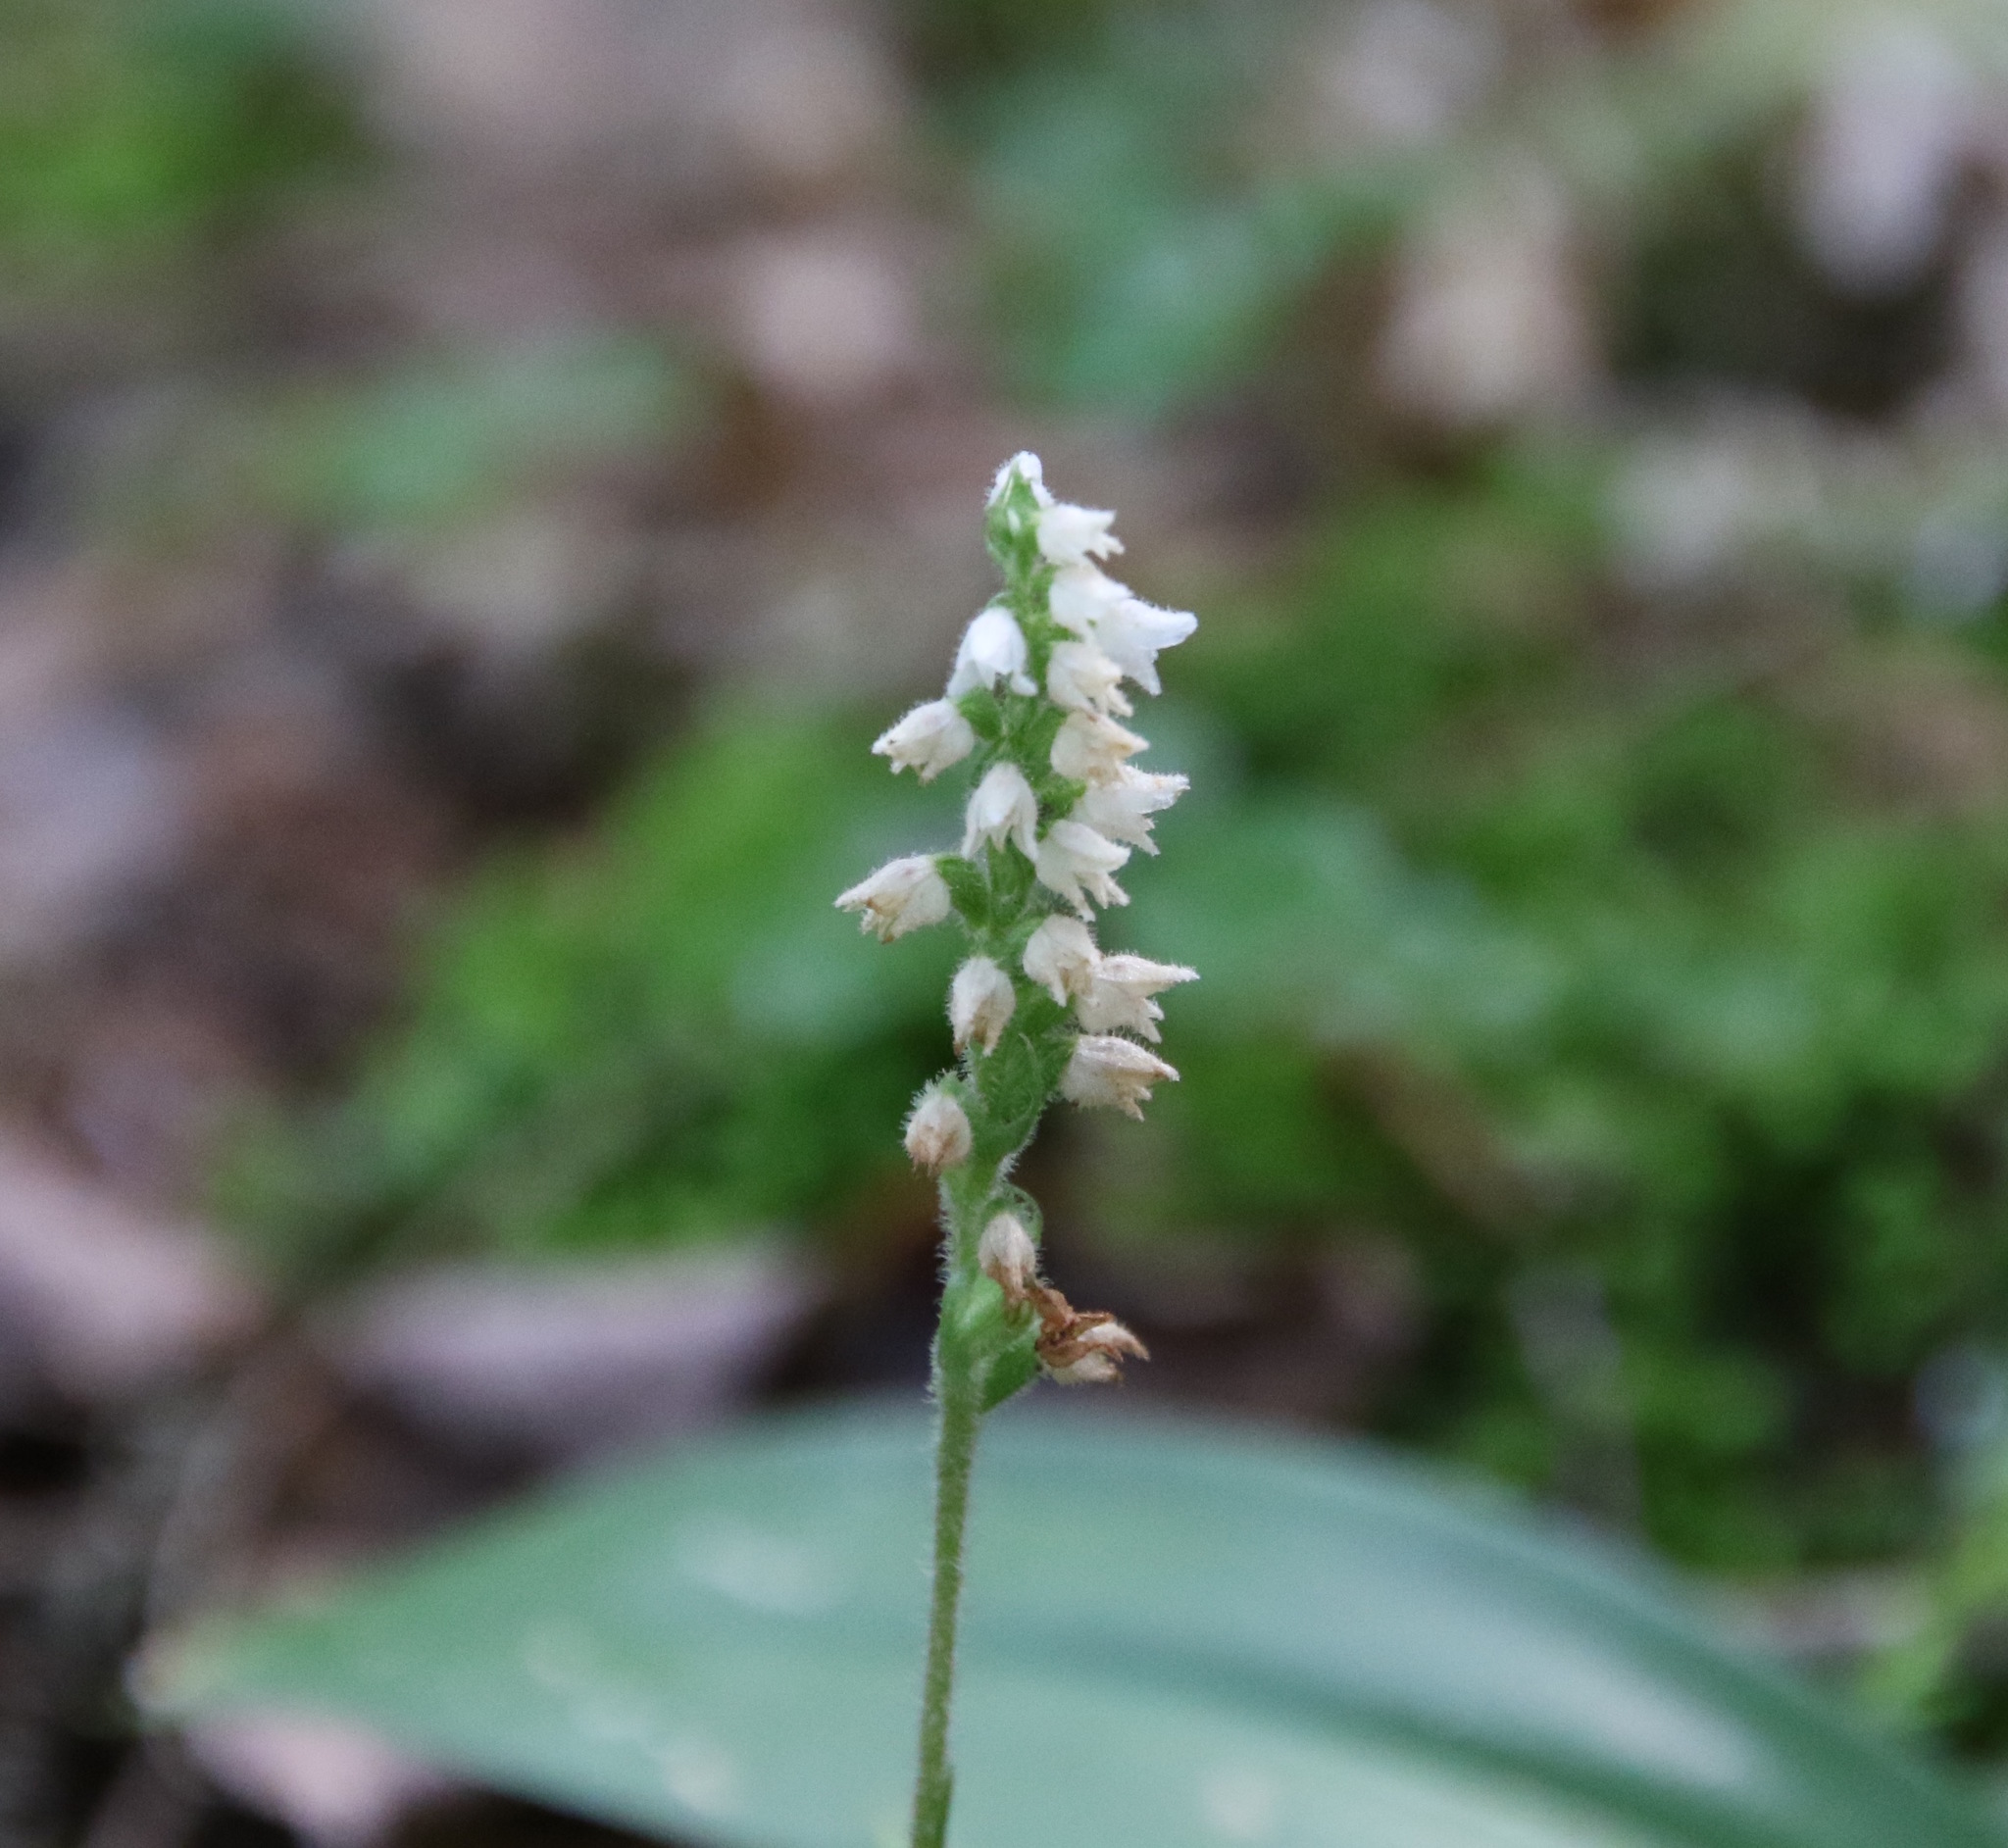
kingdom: Plantae
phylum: Tracheophyta
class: Liliopsida
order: Asparagales
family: Orchidaceae
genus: Goodyera
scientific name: Goodyera repens
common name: Creeping lady's-tresses
